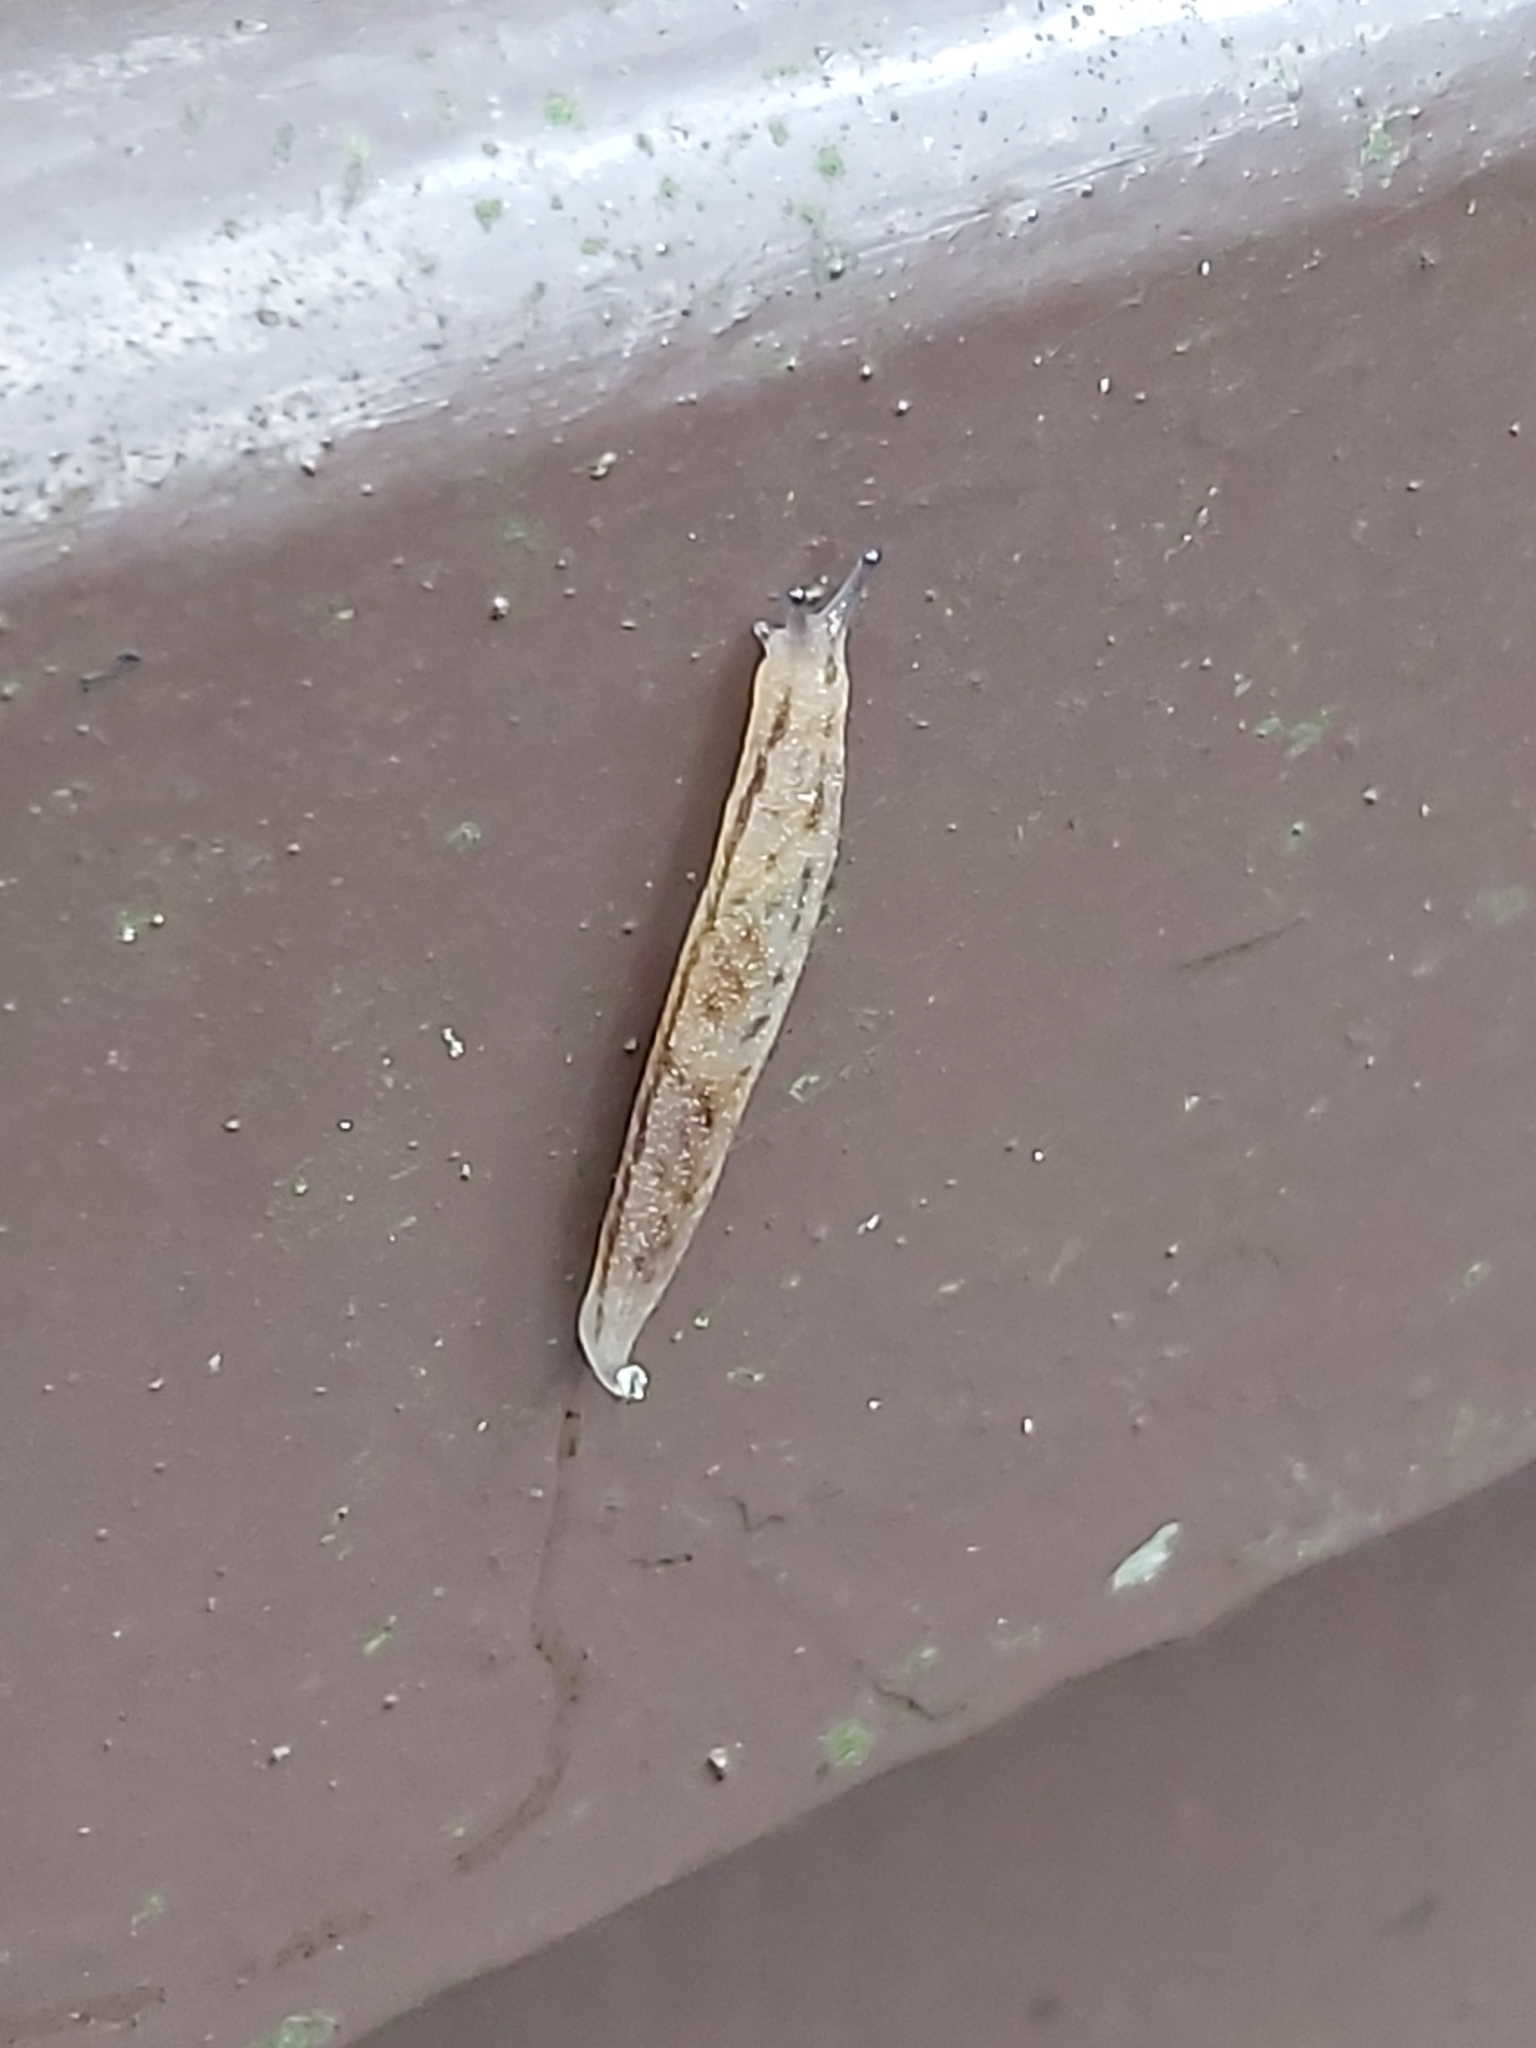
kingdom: Animalia
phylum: Mollusca
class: Gastropoda
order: Stylommatophora
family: Philomycidae
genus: Meghimatium
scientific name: Meghimatium bilineatum
